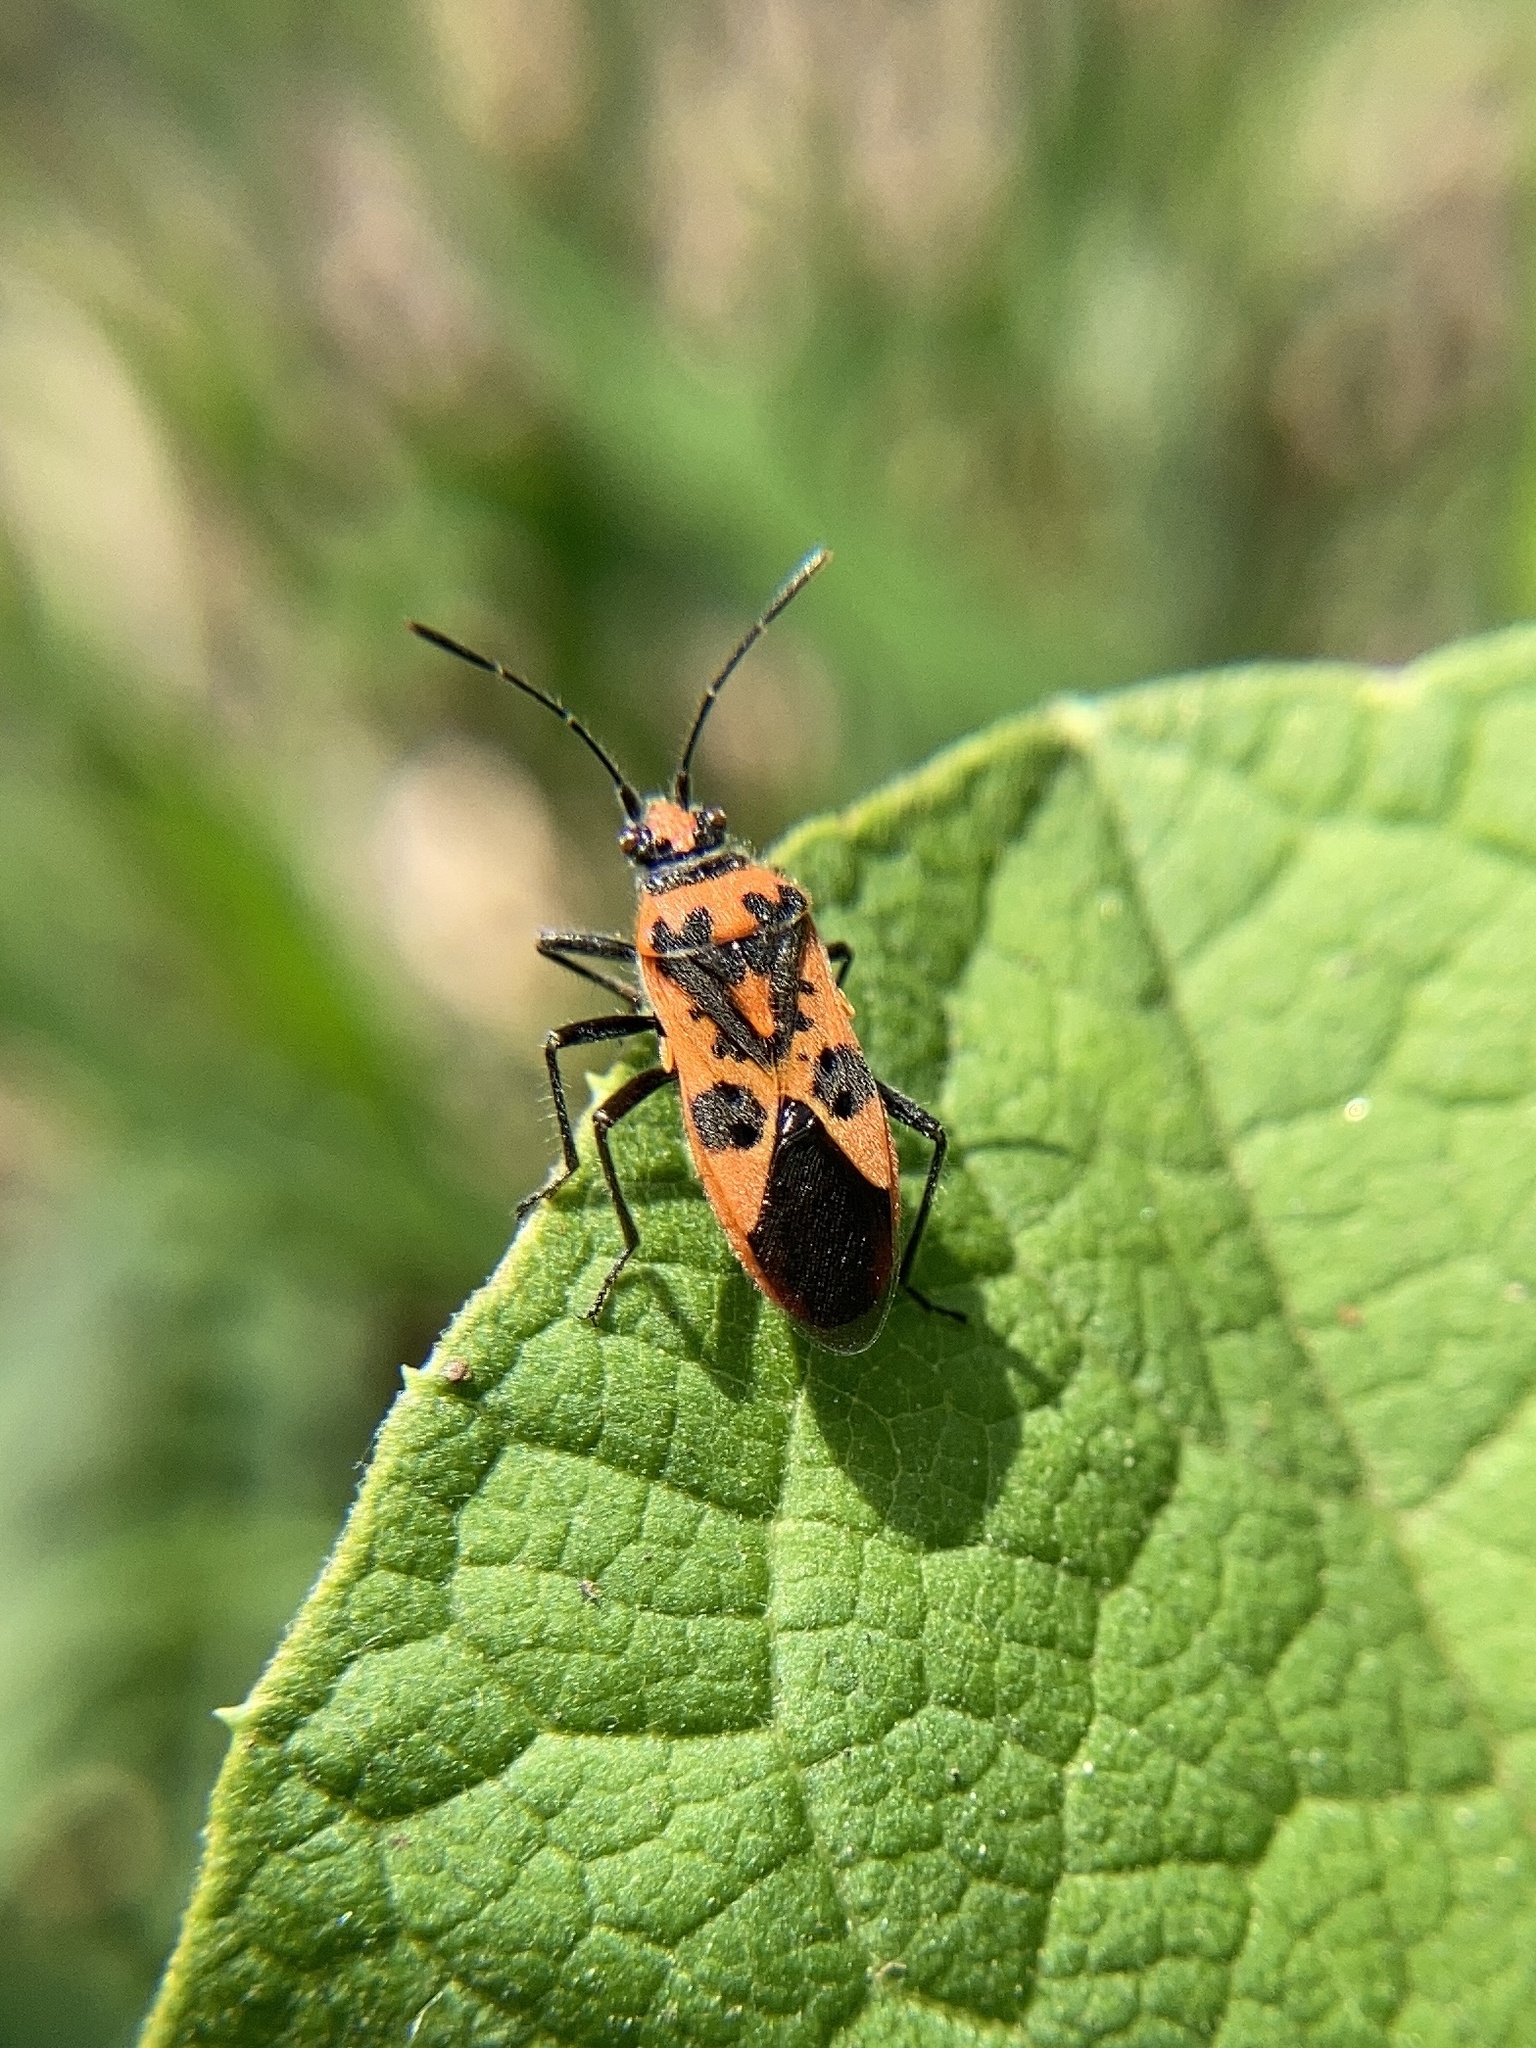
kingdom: Animalia
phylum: Arthropoda
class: Insecta
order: Hemiptera
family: Rhopalidae
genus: Corizus
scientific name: Corizus hyoscyami
